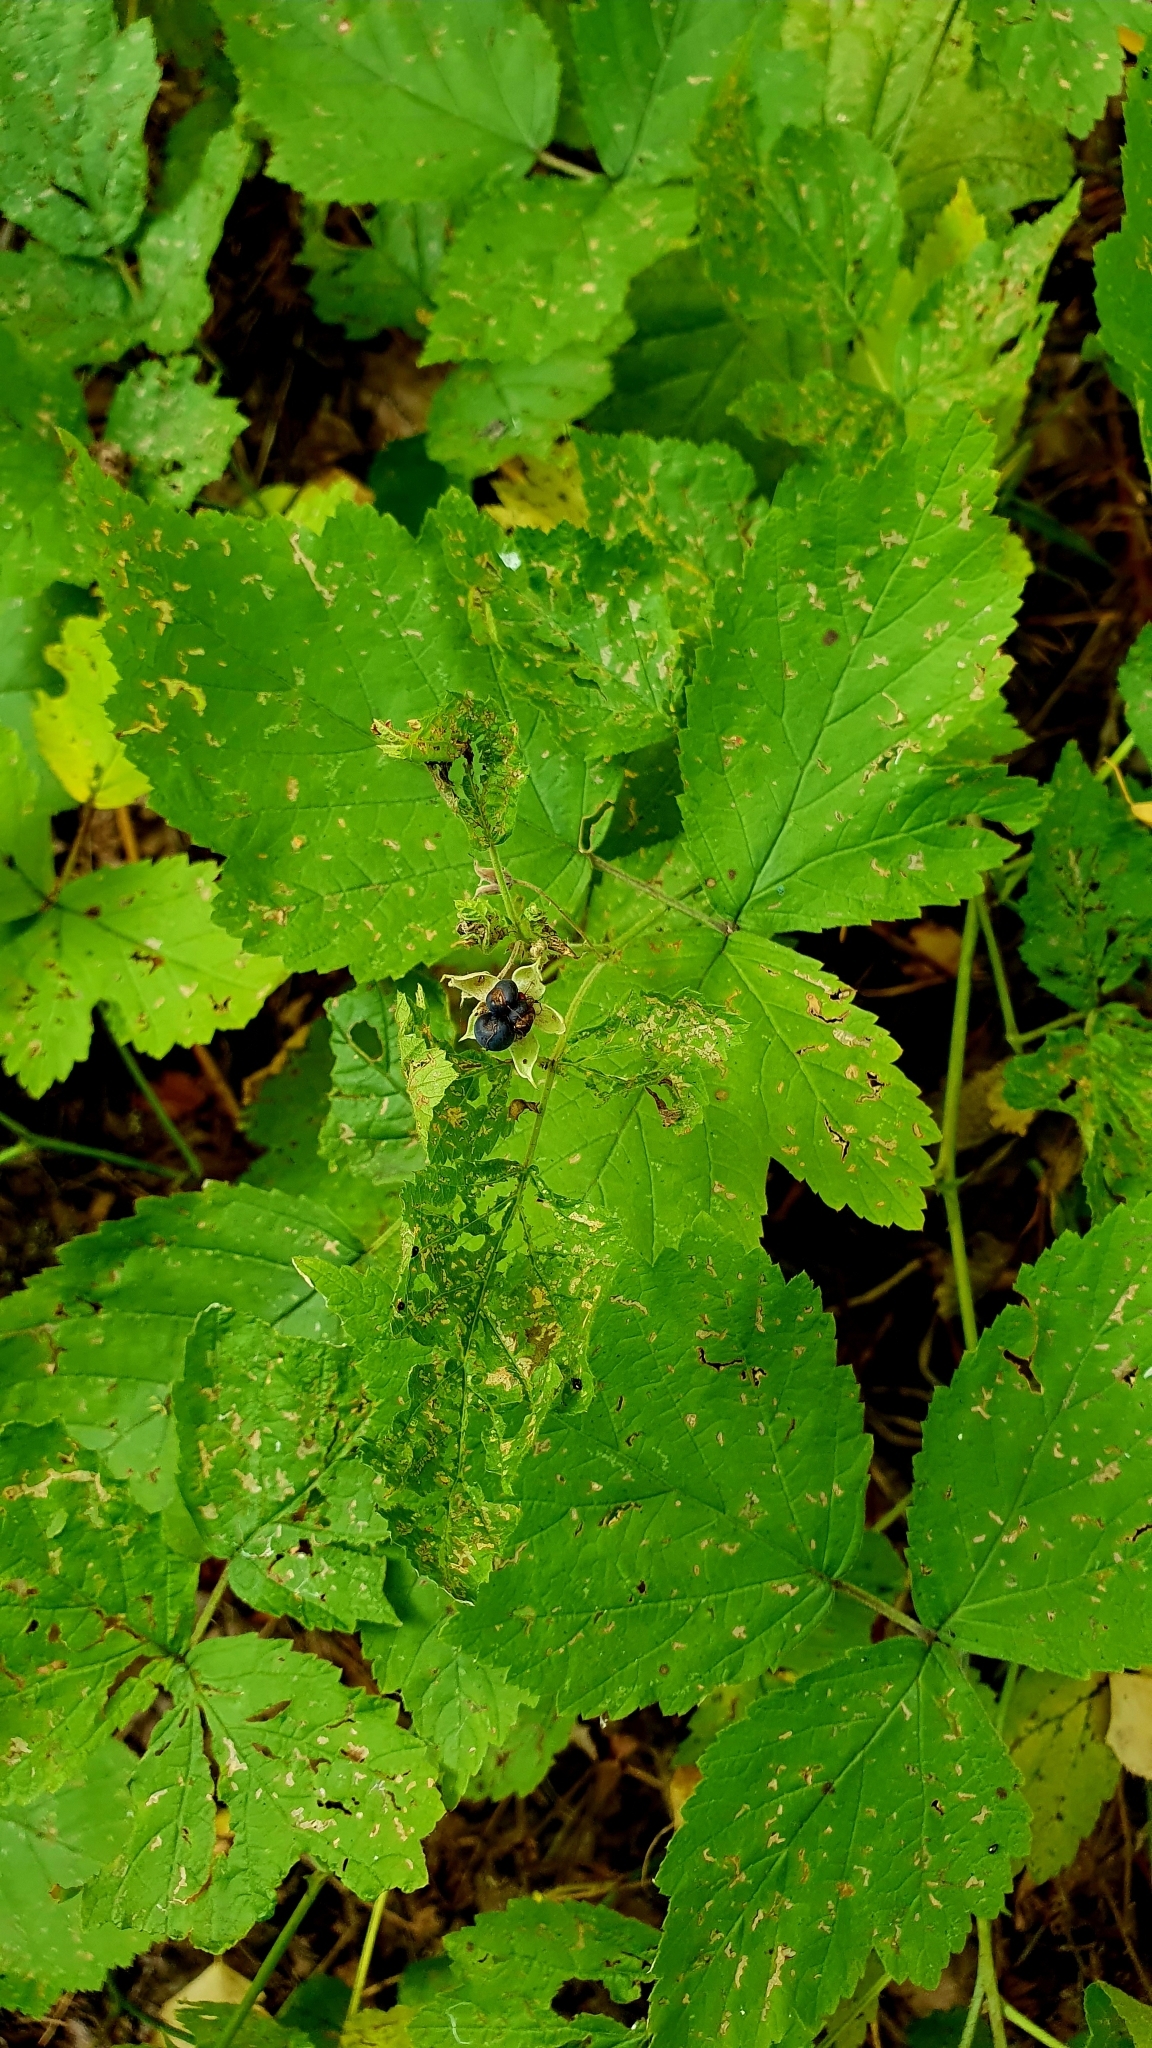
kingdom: Plantae
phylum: Tracheophyta
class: Magnoliopsida
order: Rosales
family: Rosaceae
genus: Rubus
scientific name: Rubus caesius
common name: Dewberry
